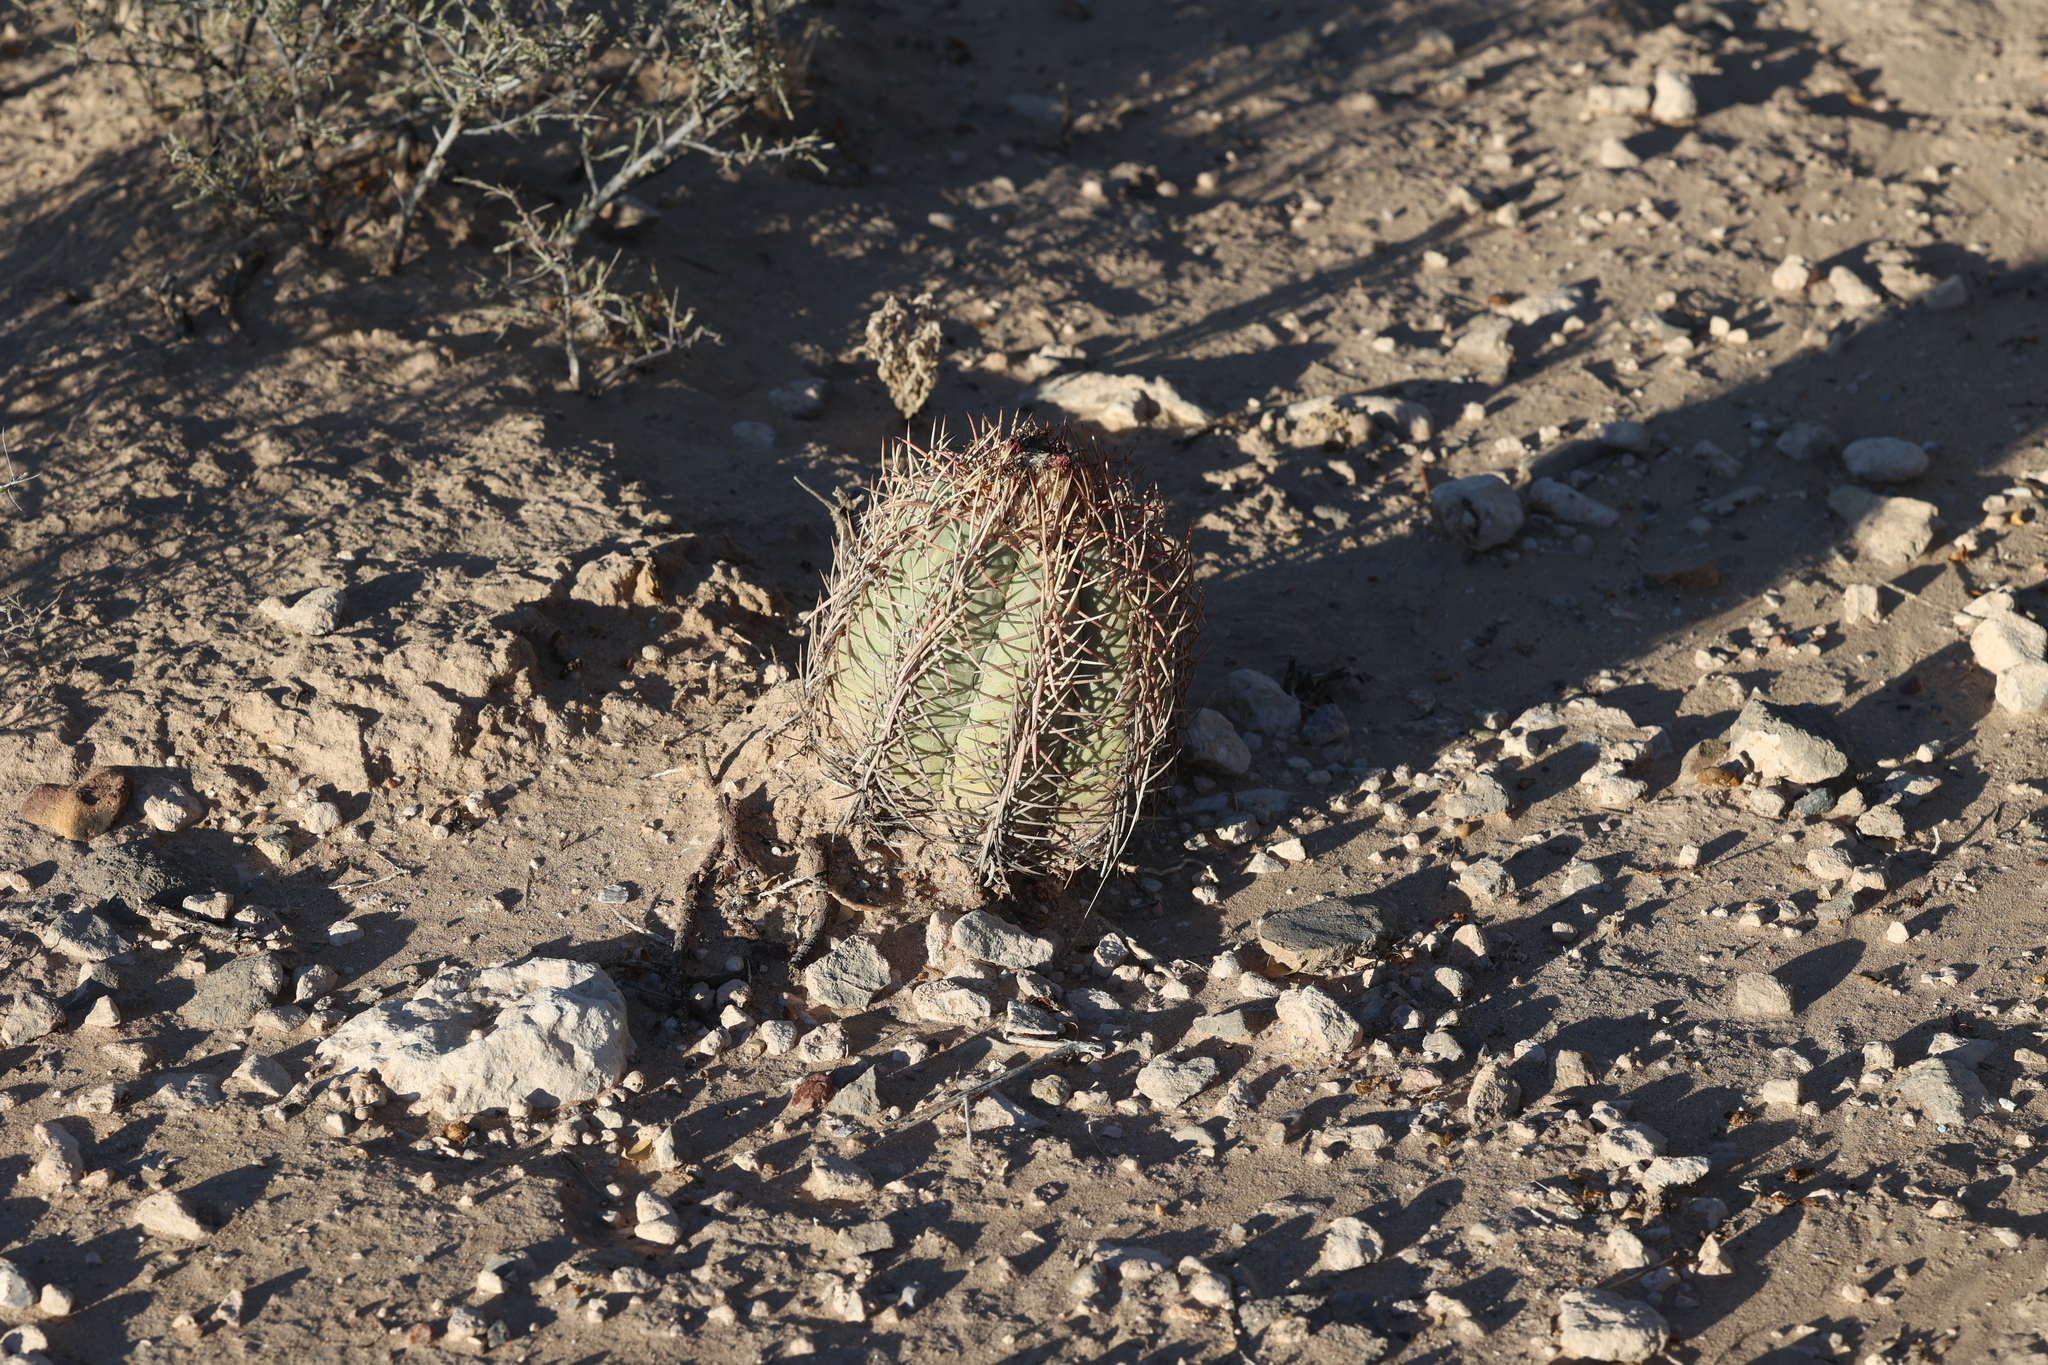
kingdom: Plantae
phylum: Tracheophyta
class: Magnoliopsida
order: Caryophyllales
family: Cactaceae
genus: Echinocactus
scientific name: Echinocactus horizonthalonius
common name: Devilshead
